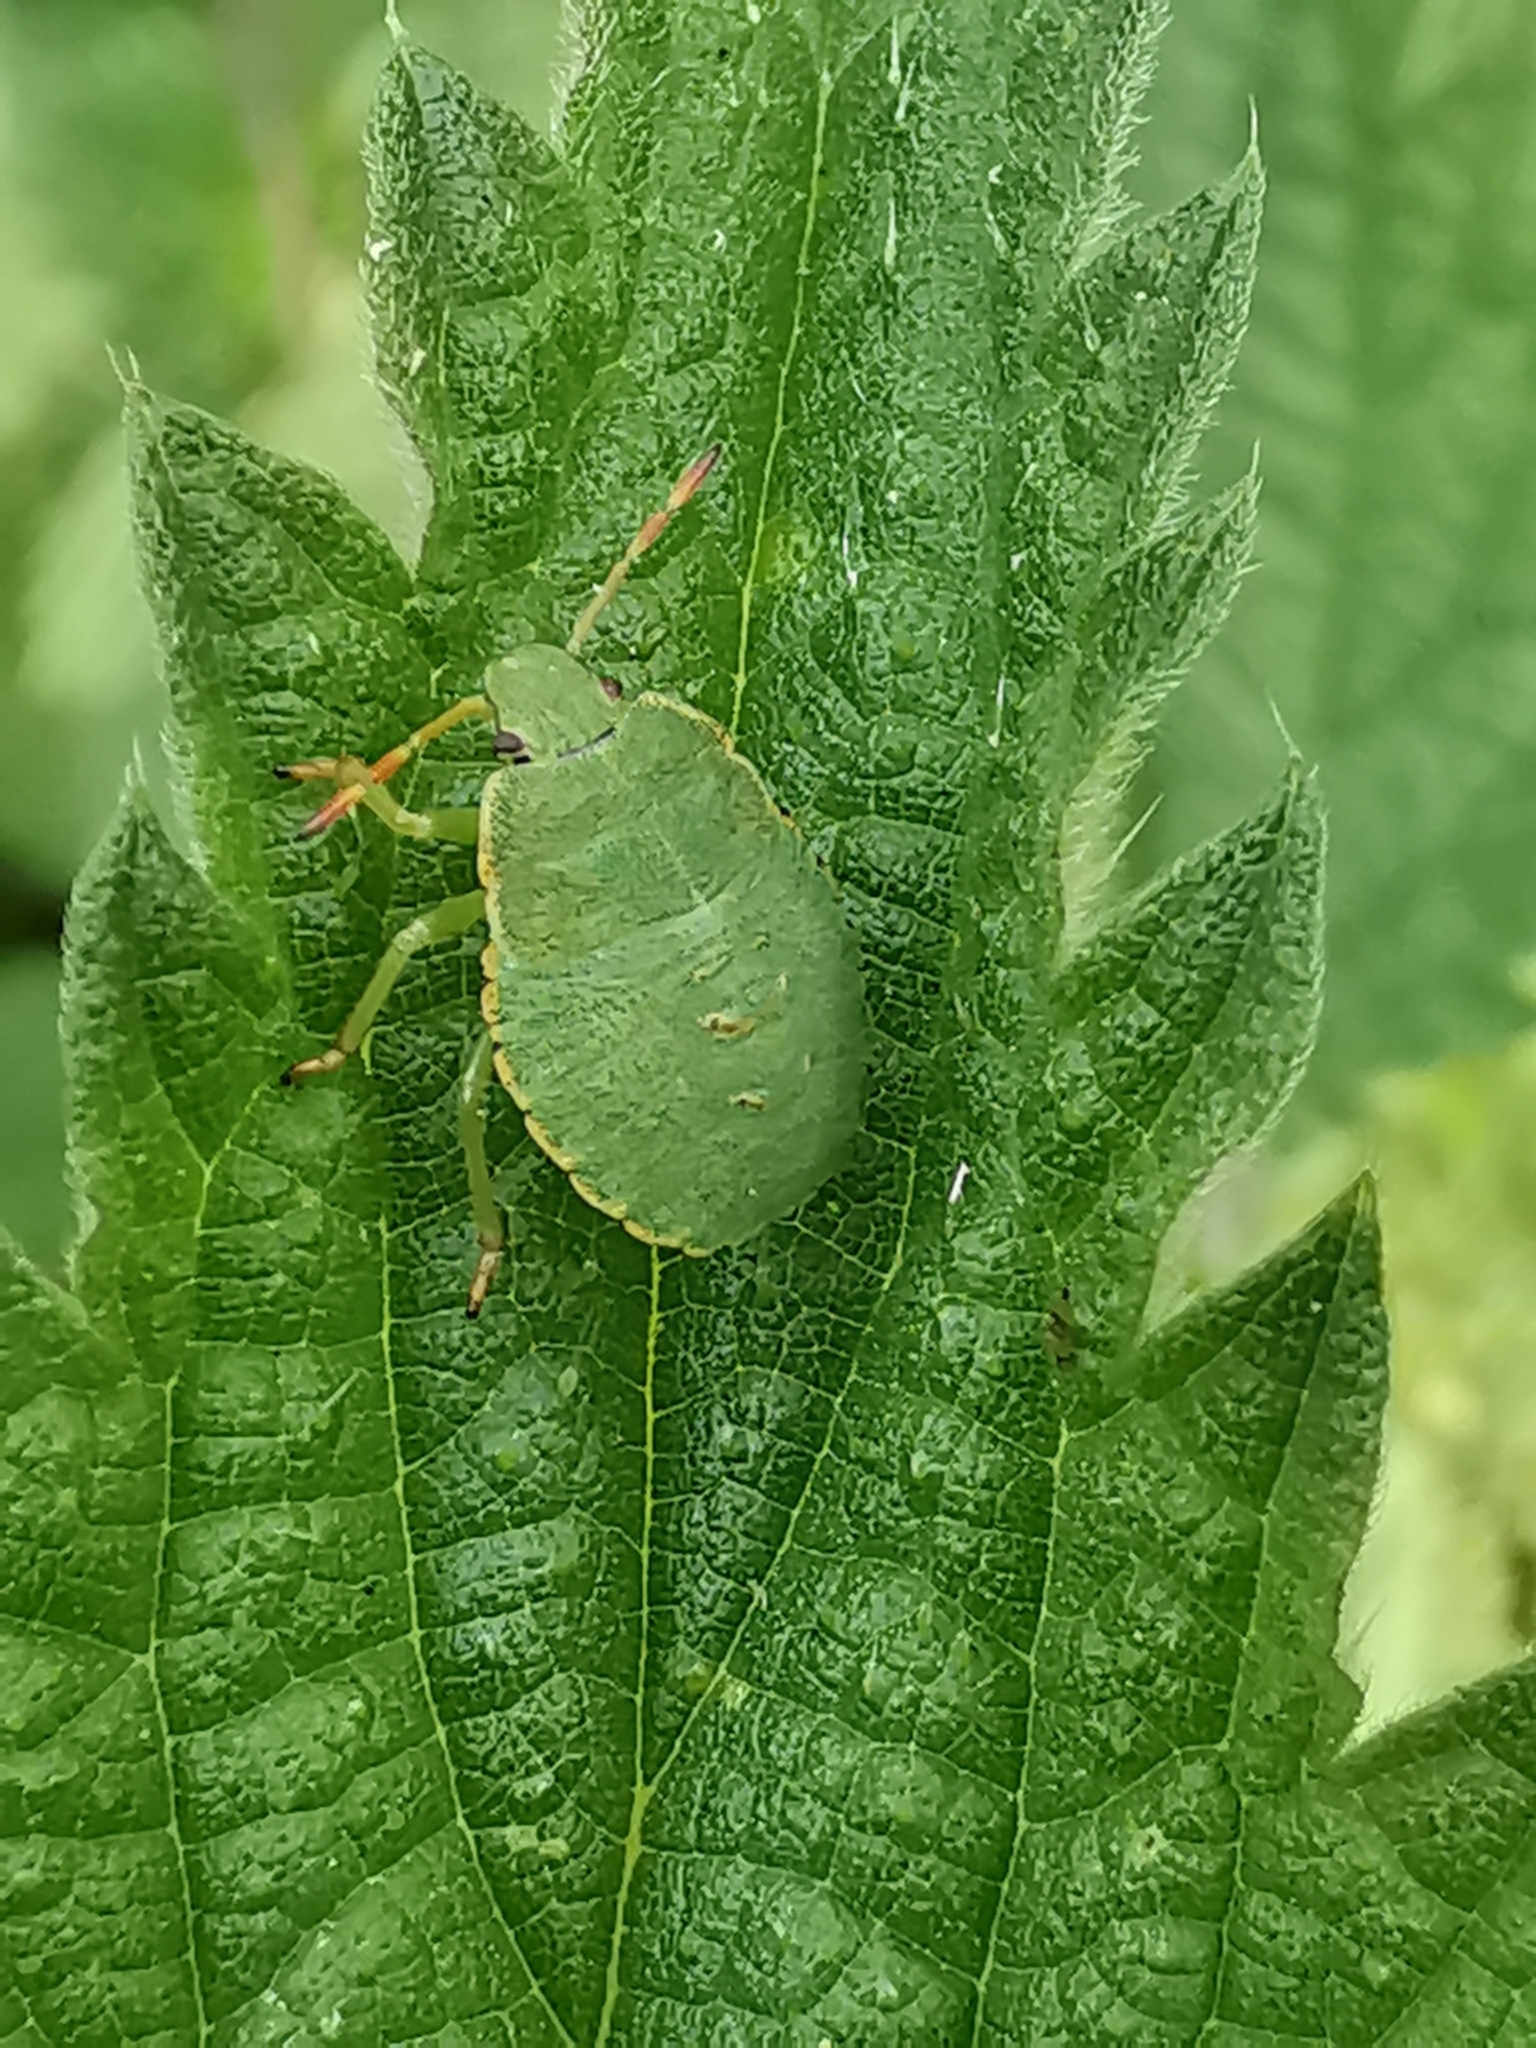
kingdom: Animalia
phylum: Arthropoda
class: Insecta
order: Hemiptera
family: Pentatomidae
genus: Palomena
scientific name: Palomena prasina
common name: Green shieldbug
